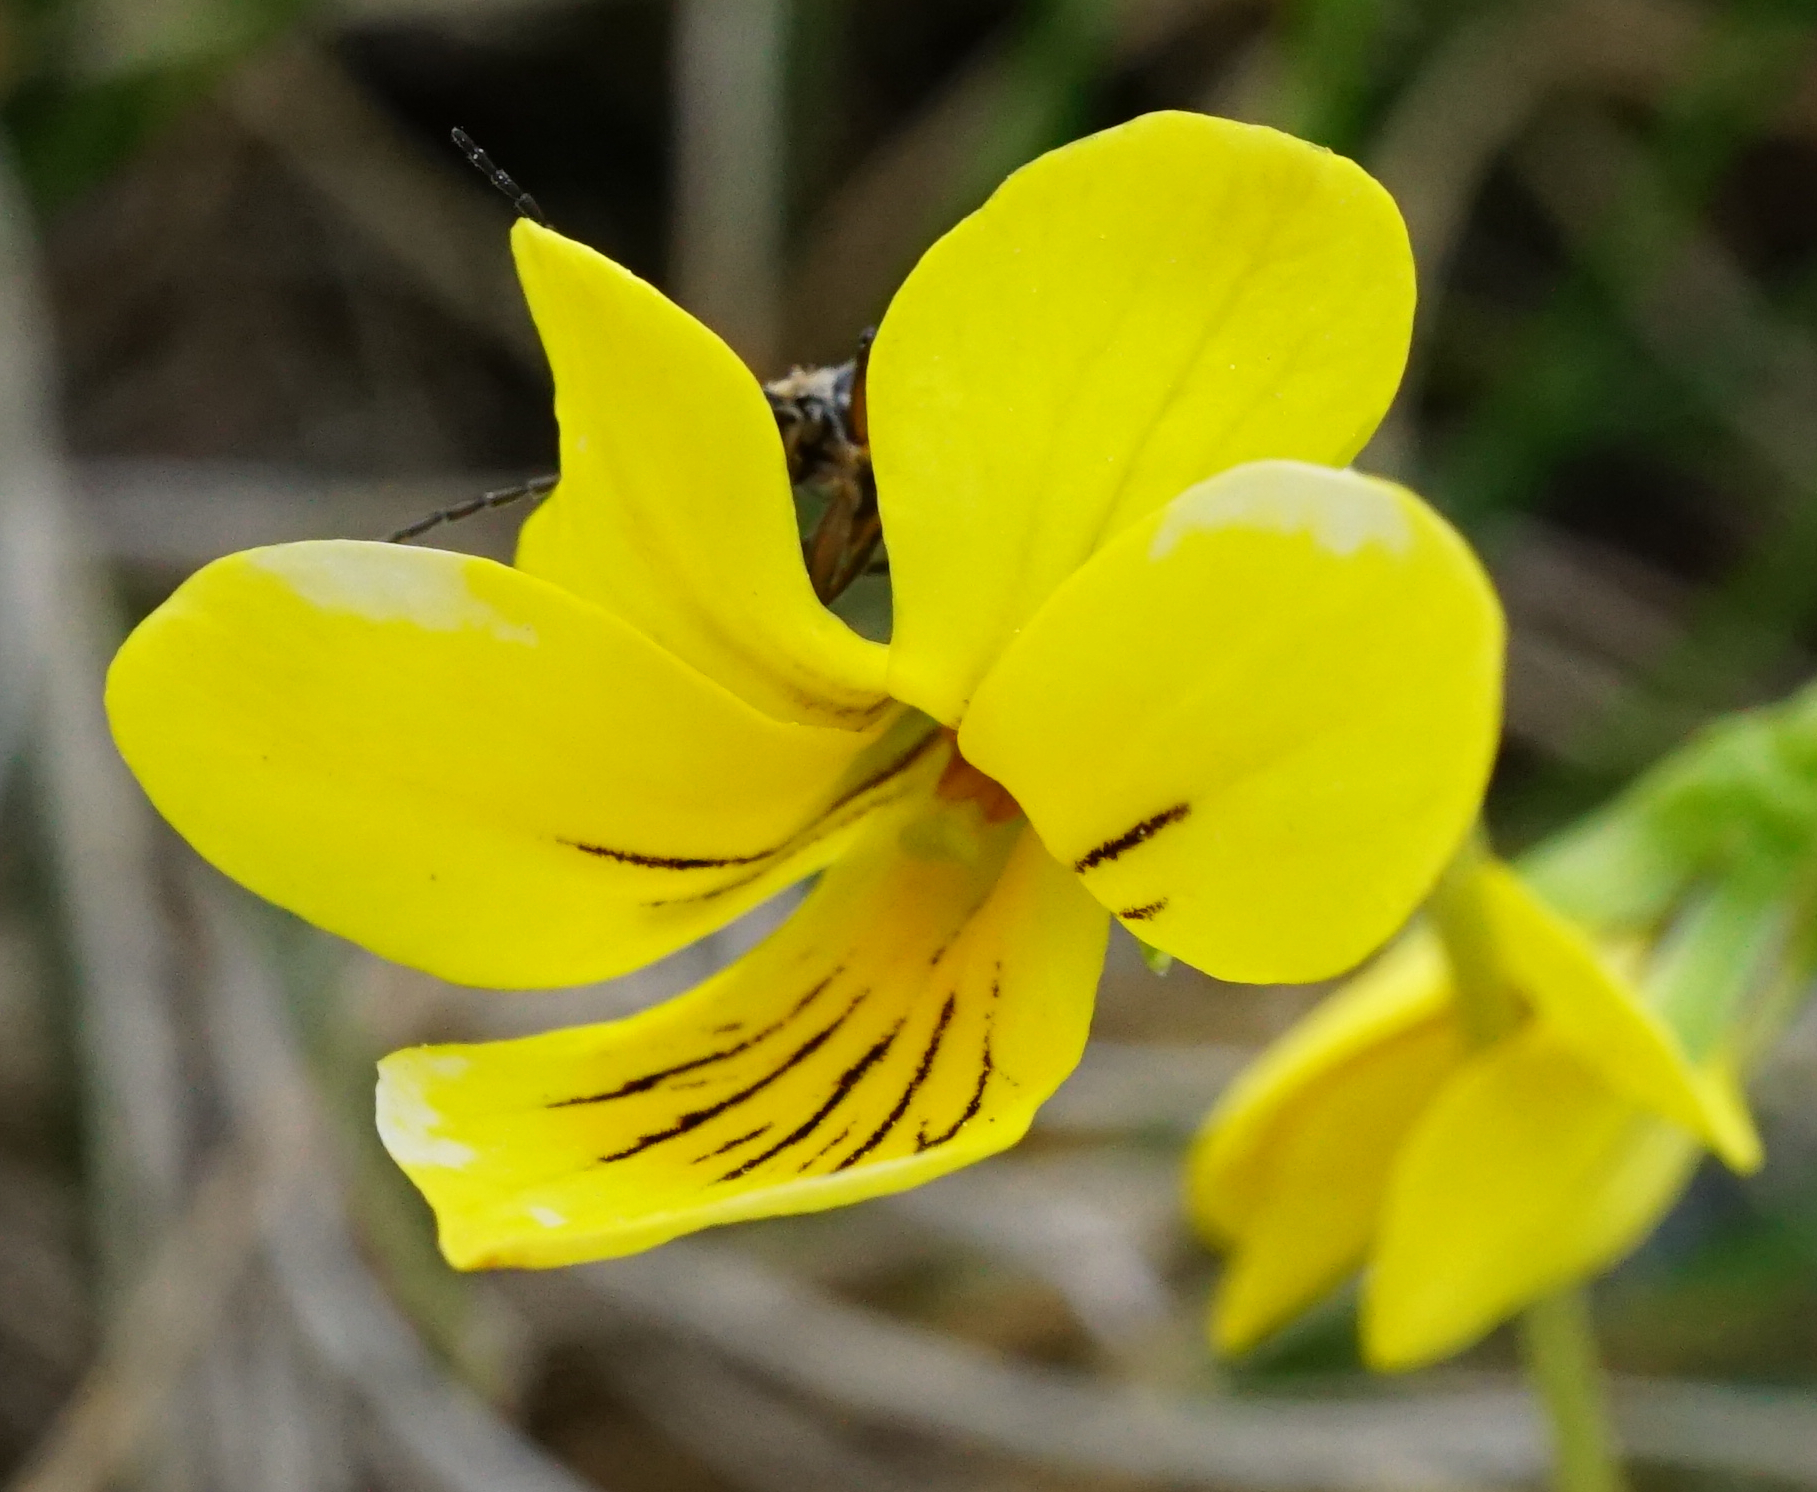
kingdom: Plantae
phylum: Tracheophyta
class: Magnoliopsida
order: Malpighiales
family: Violaceae
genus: Viola
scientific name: Viola biflora
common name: Alpine yellow violet
